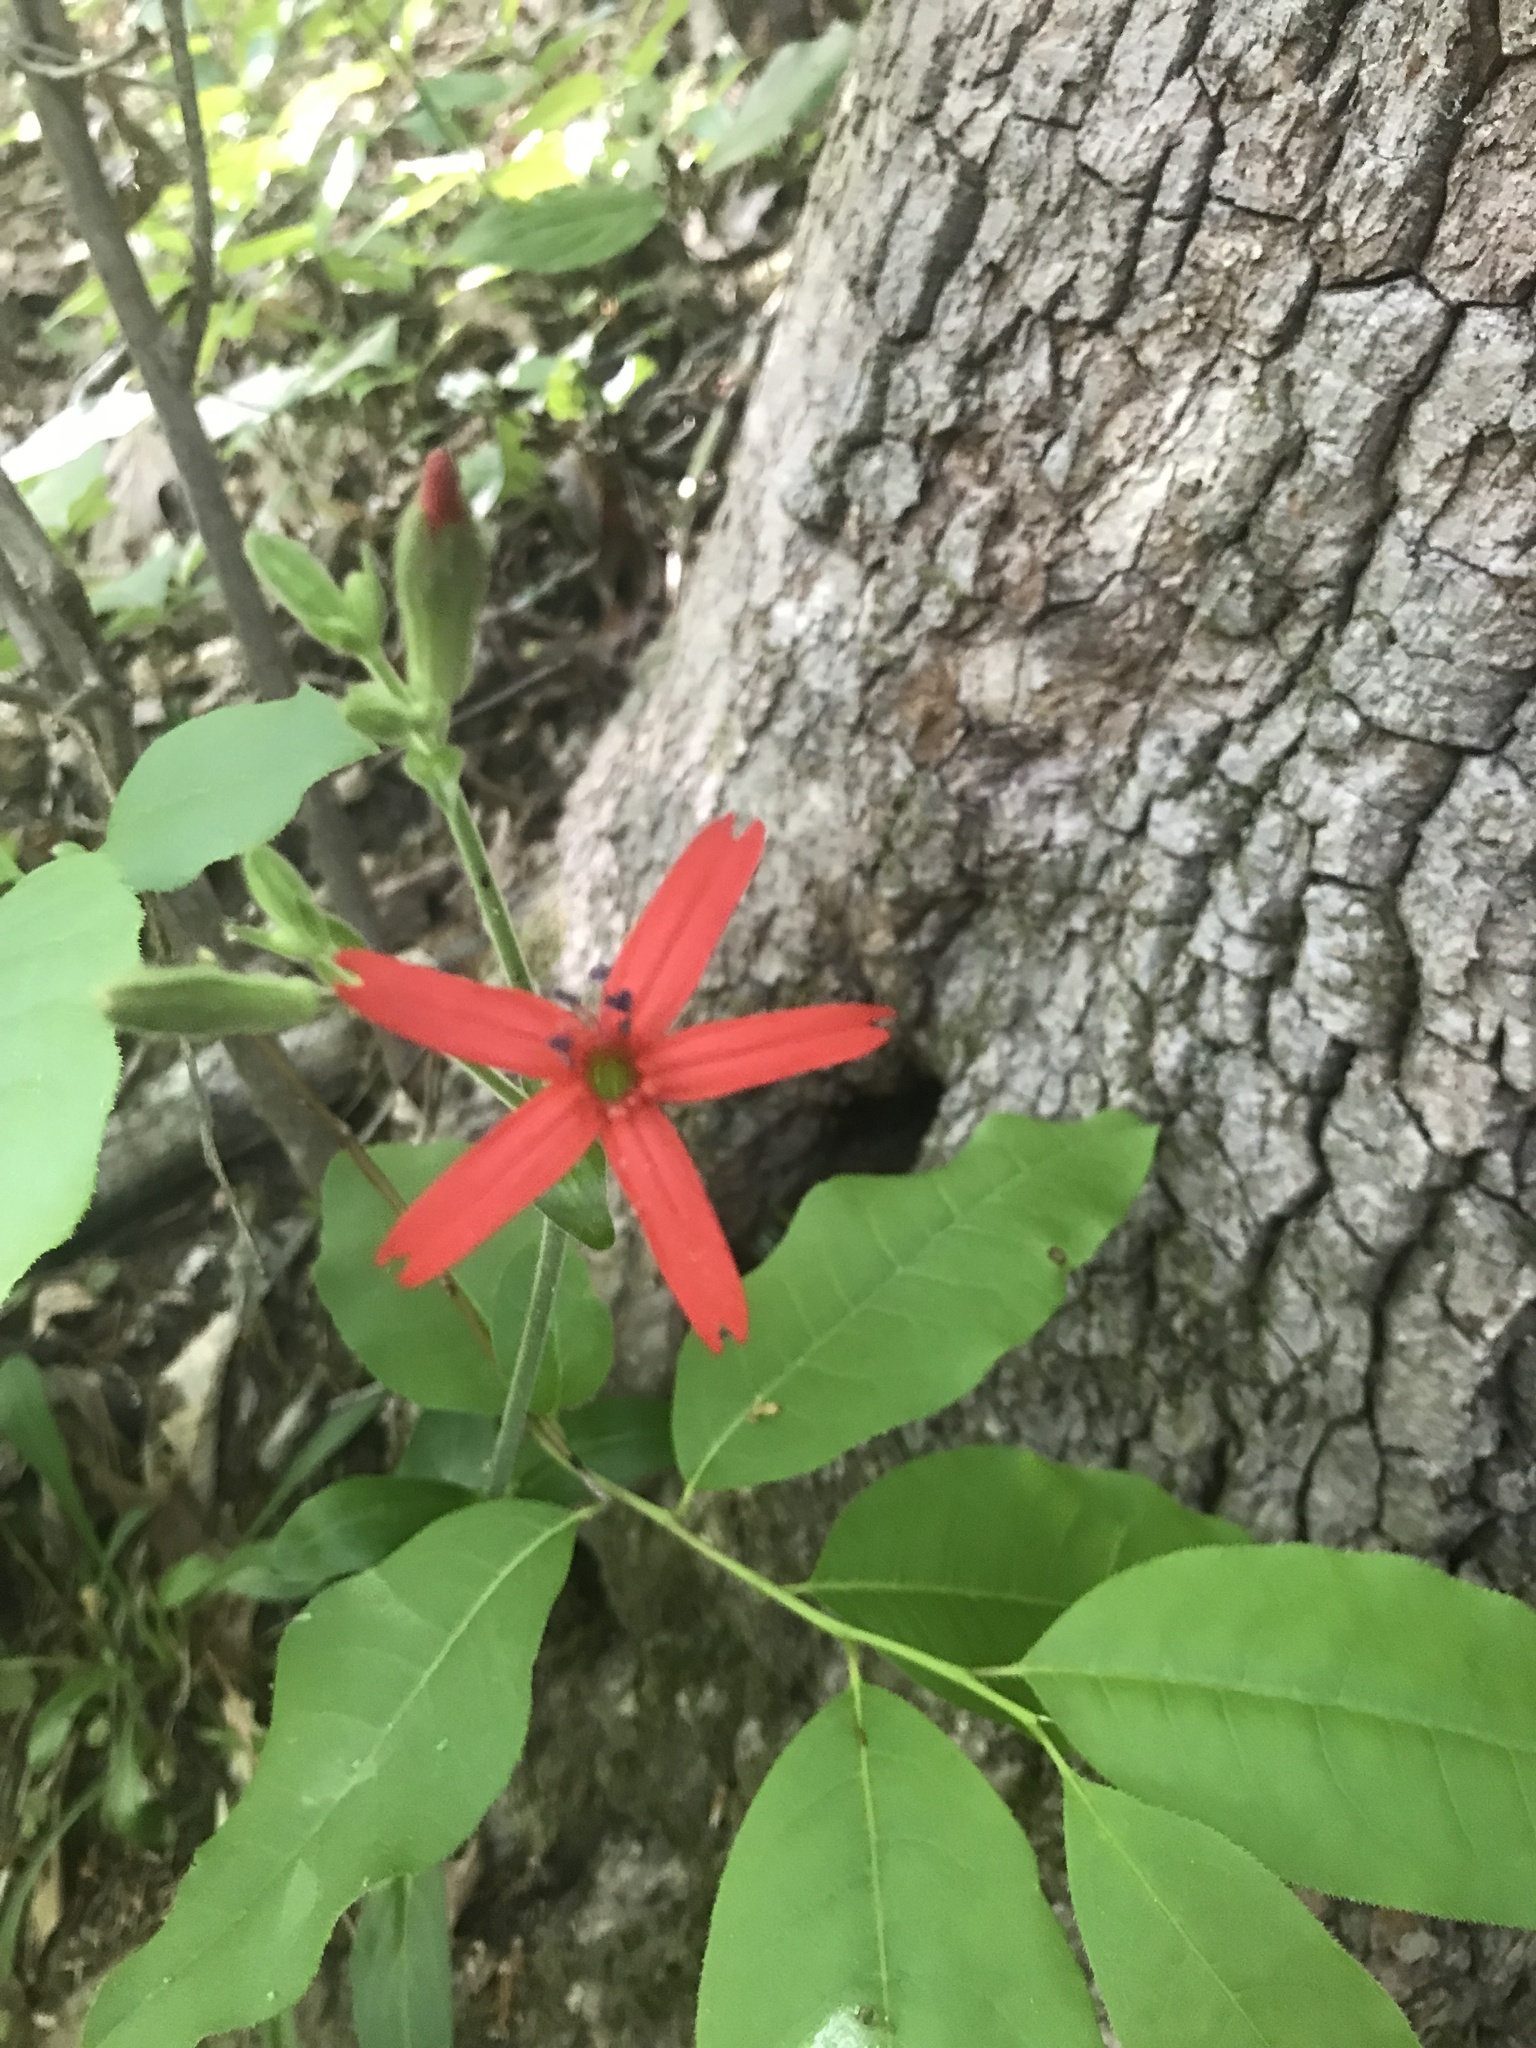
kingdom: Plantae
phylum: Tracheophyta
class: Magnoliopsida
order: Caryophyllales
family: Caryophyllaceae
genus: Silene
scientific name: Silene virginica
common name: Fire-pink
